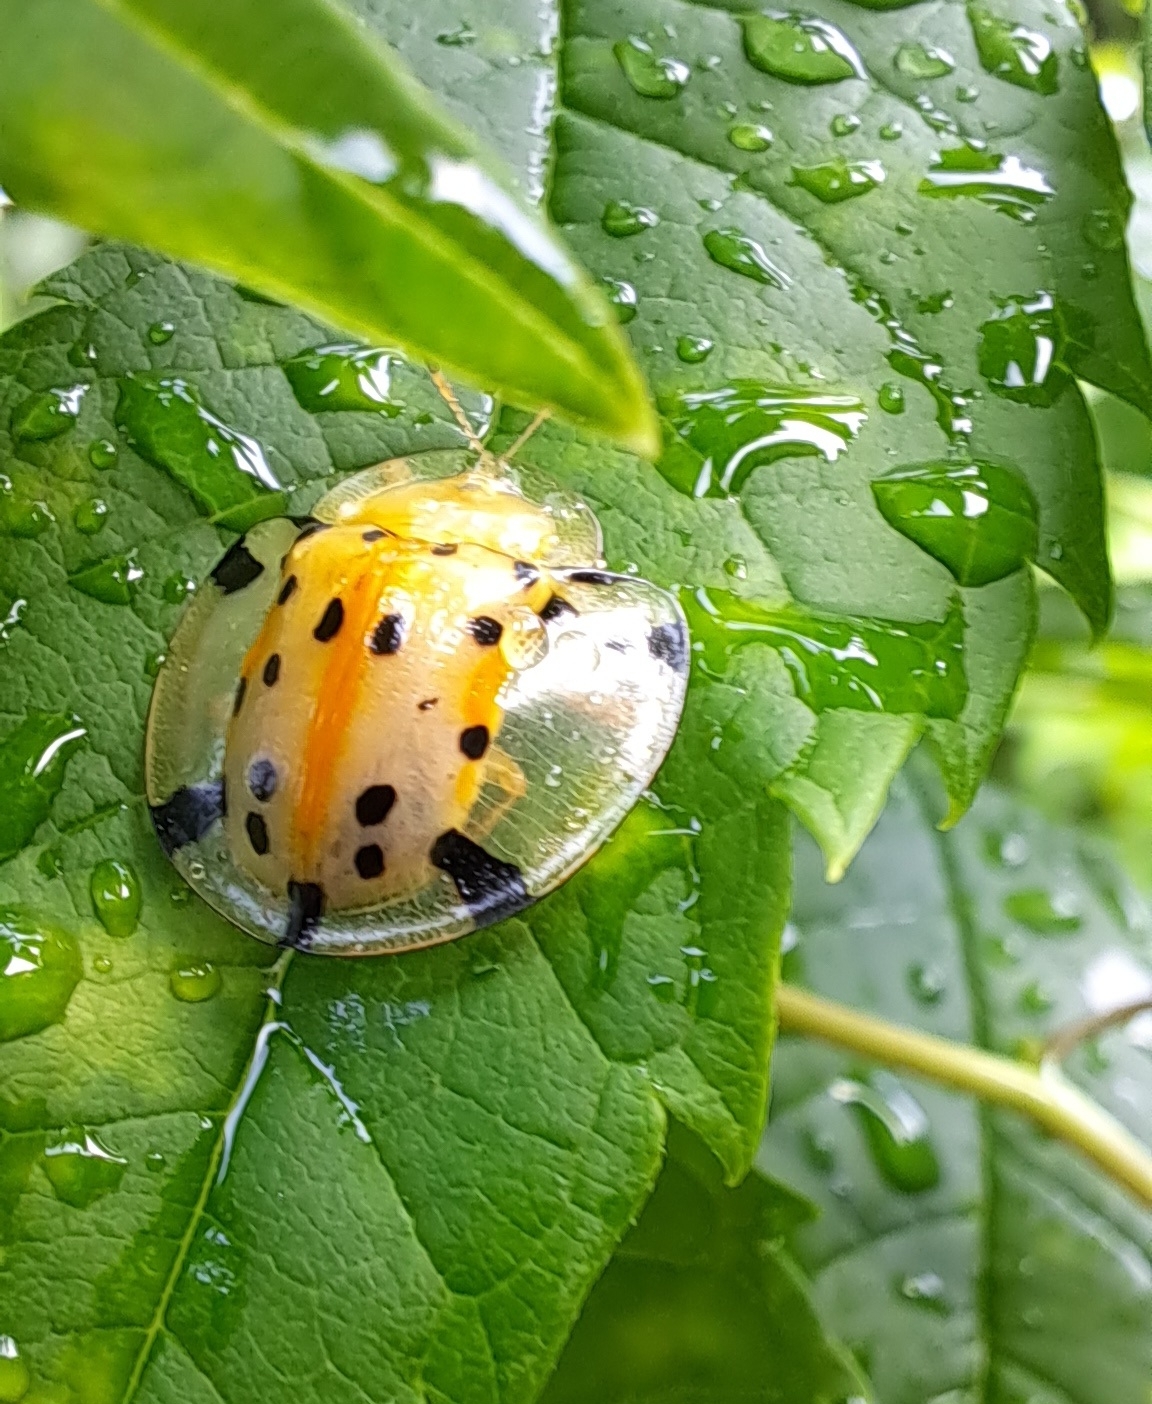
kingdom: Animalia
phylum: Arthropoda
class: Insecta
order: Coleoptera
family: Chrysomelidae
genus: Aspidimorpha
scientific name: Aspidimorpha miliaris
